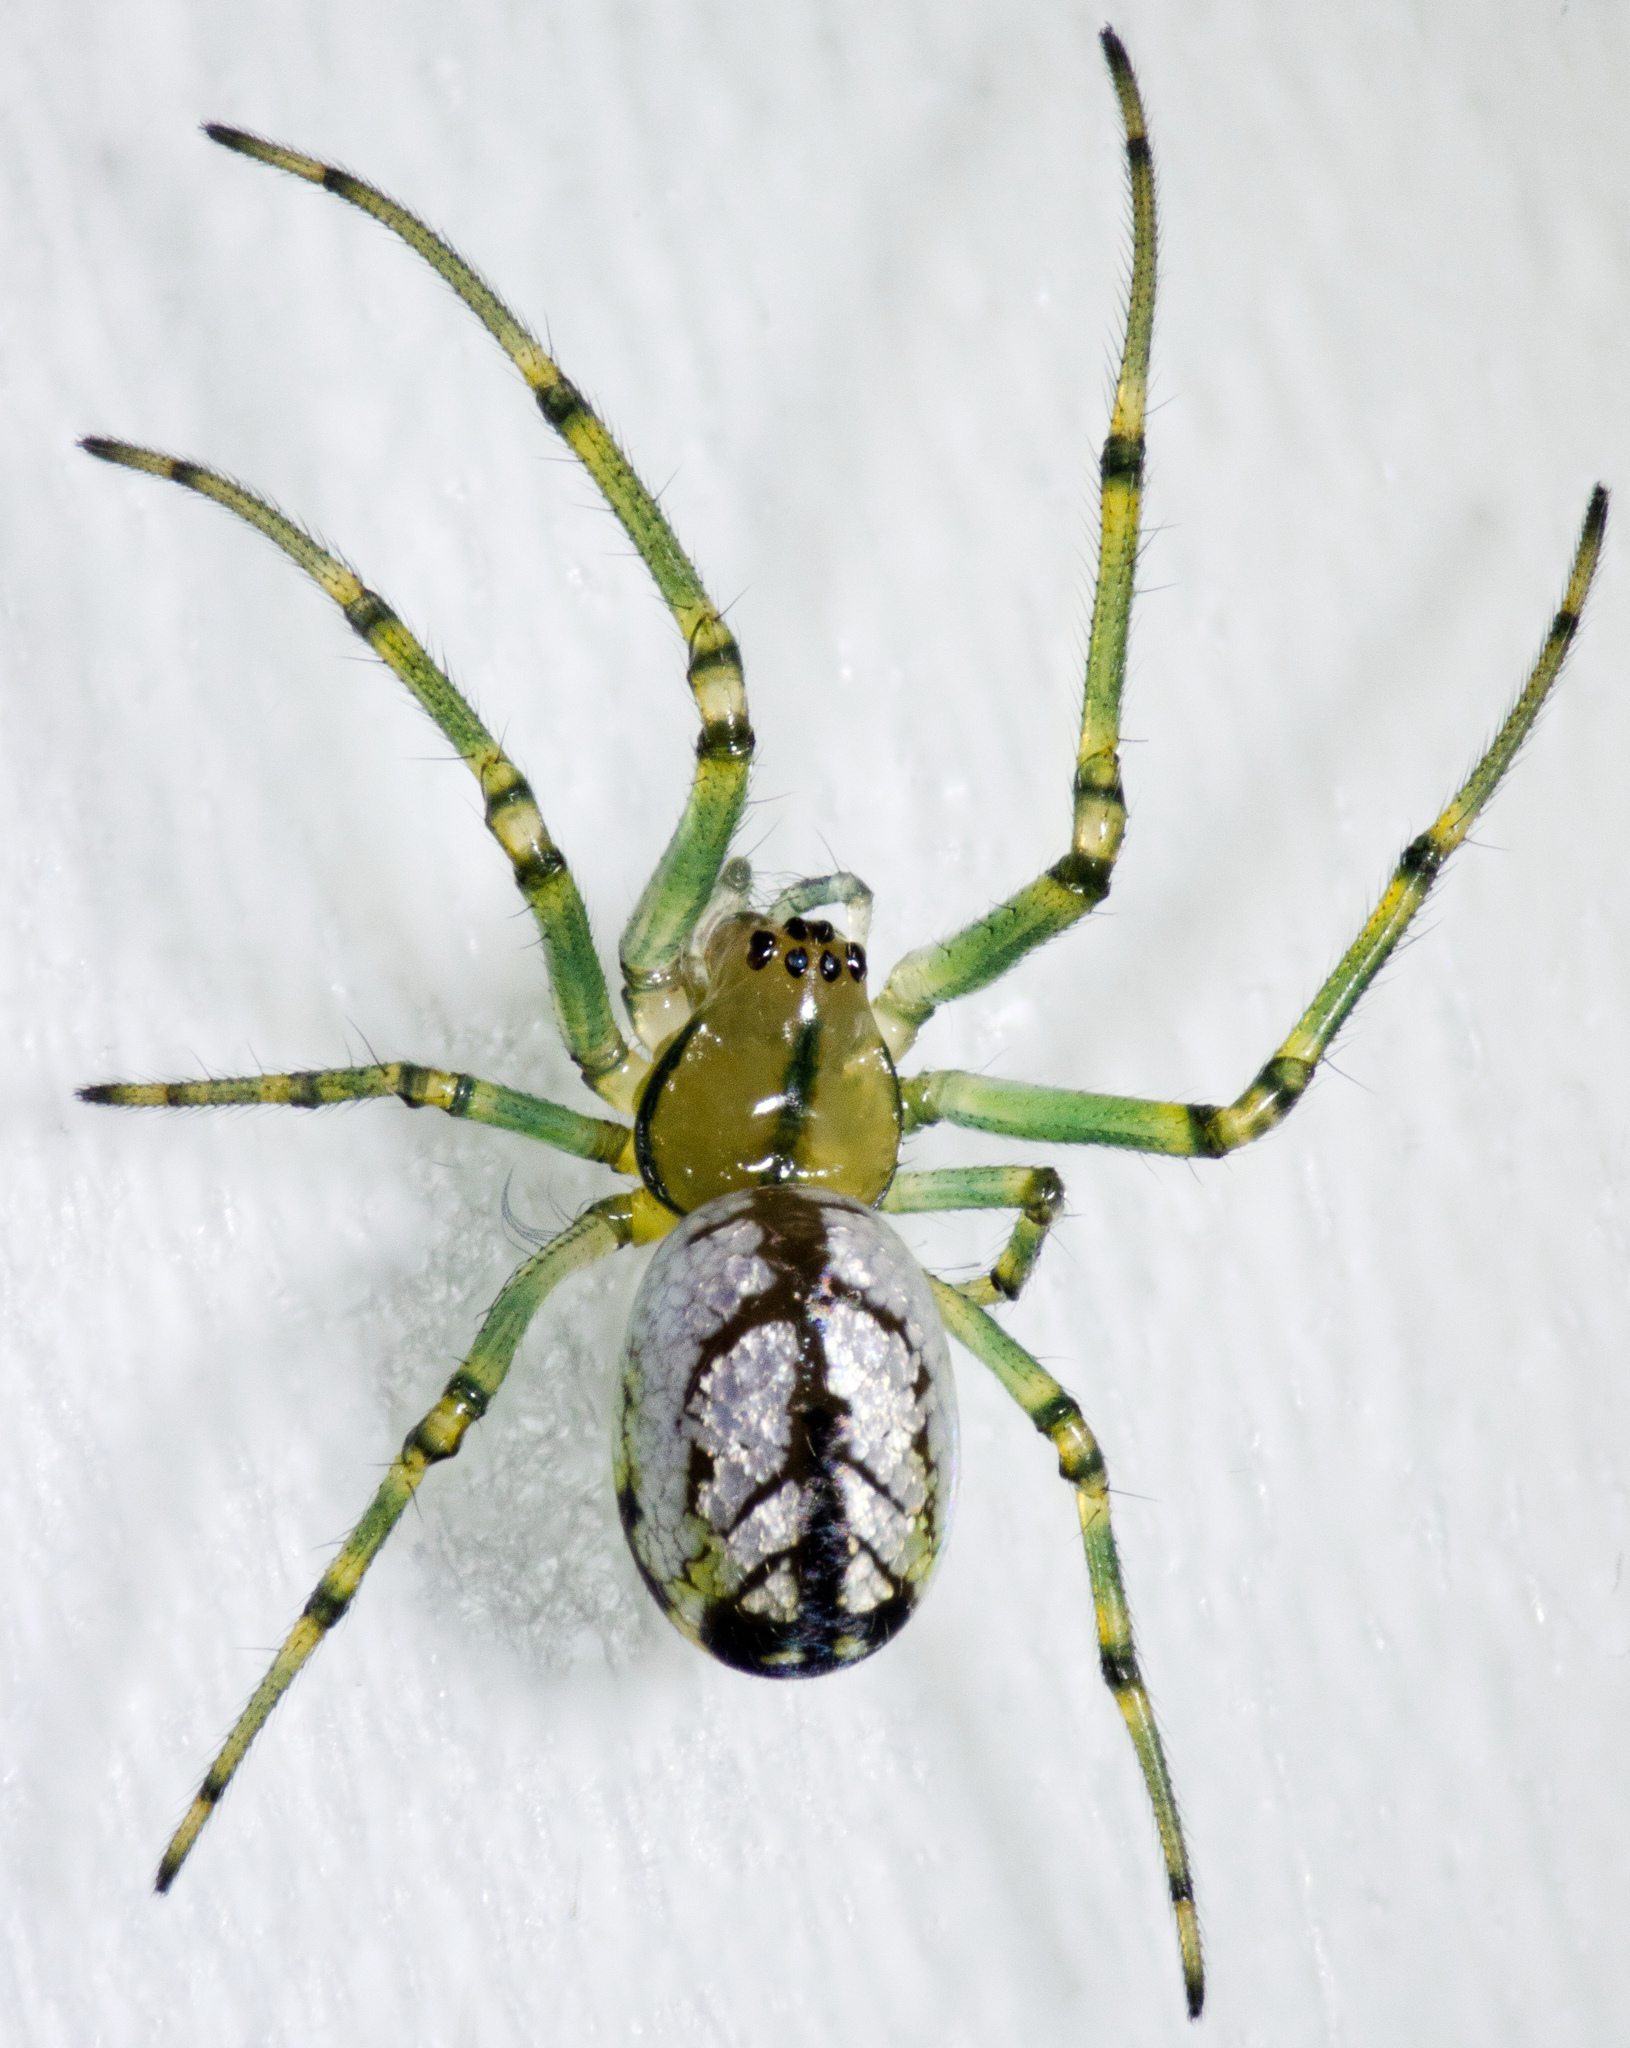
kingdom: Animalia
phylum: Arthropoda
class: Arachnida
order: Araneae
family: Tetragnathidae
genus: Leucauge
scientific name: Leucauge venusta
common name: Longjawed orb weavers
